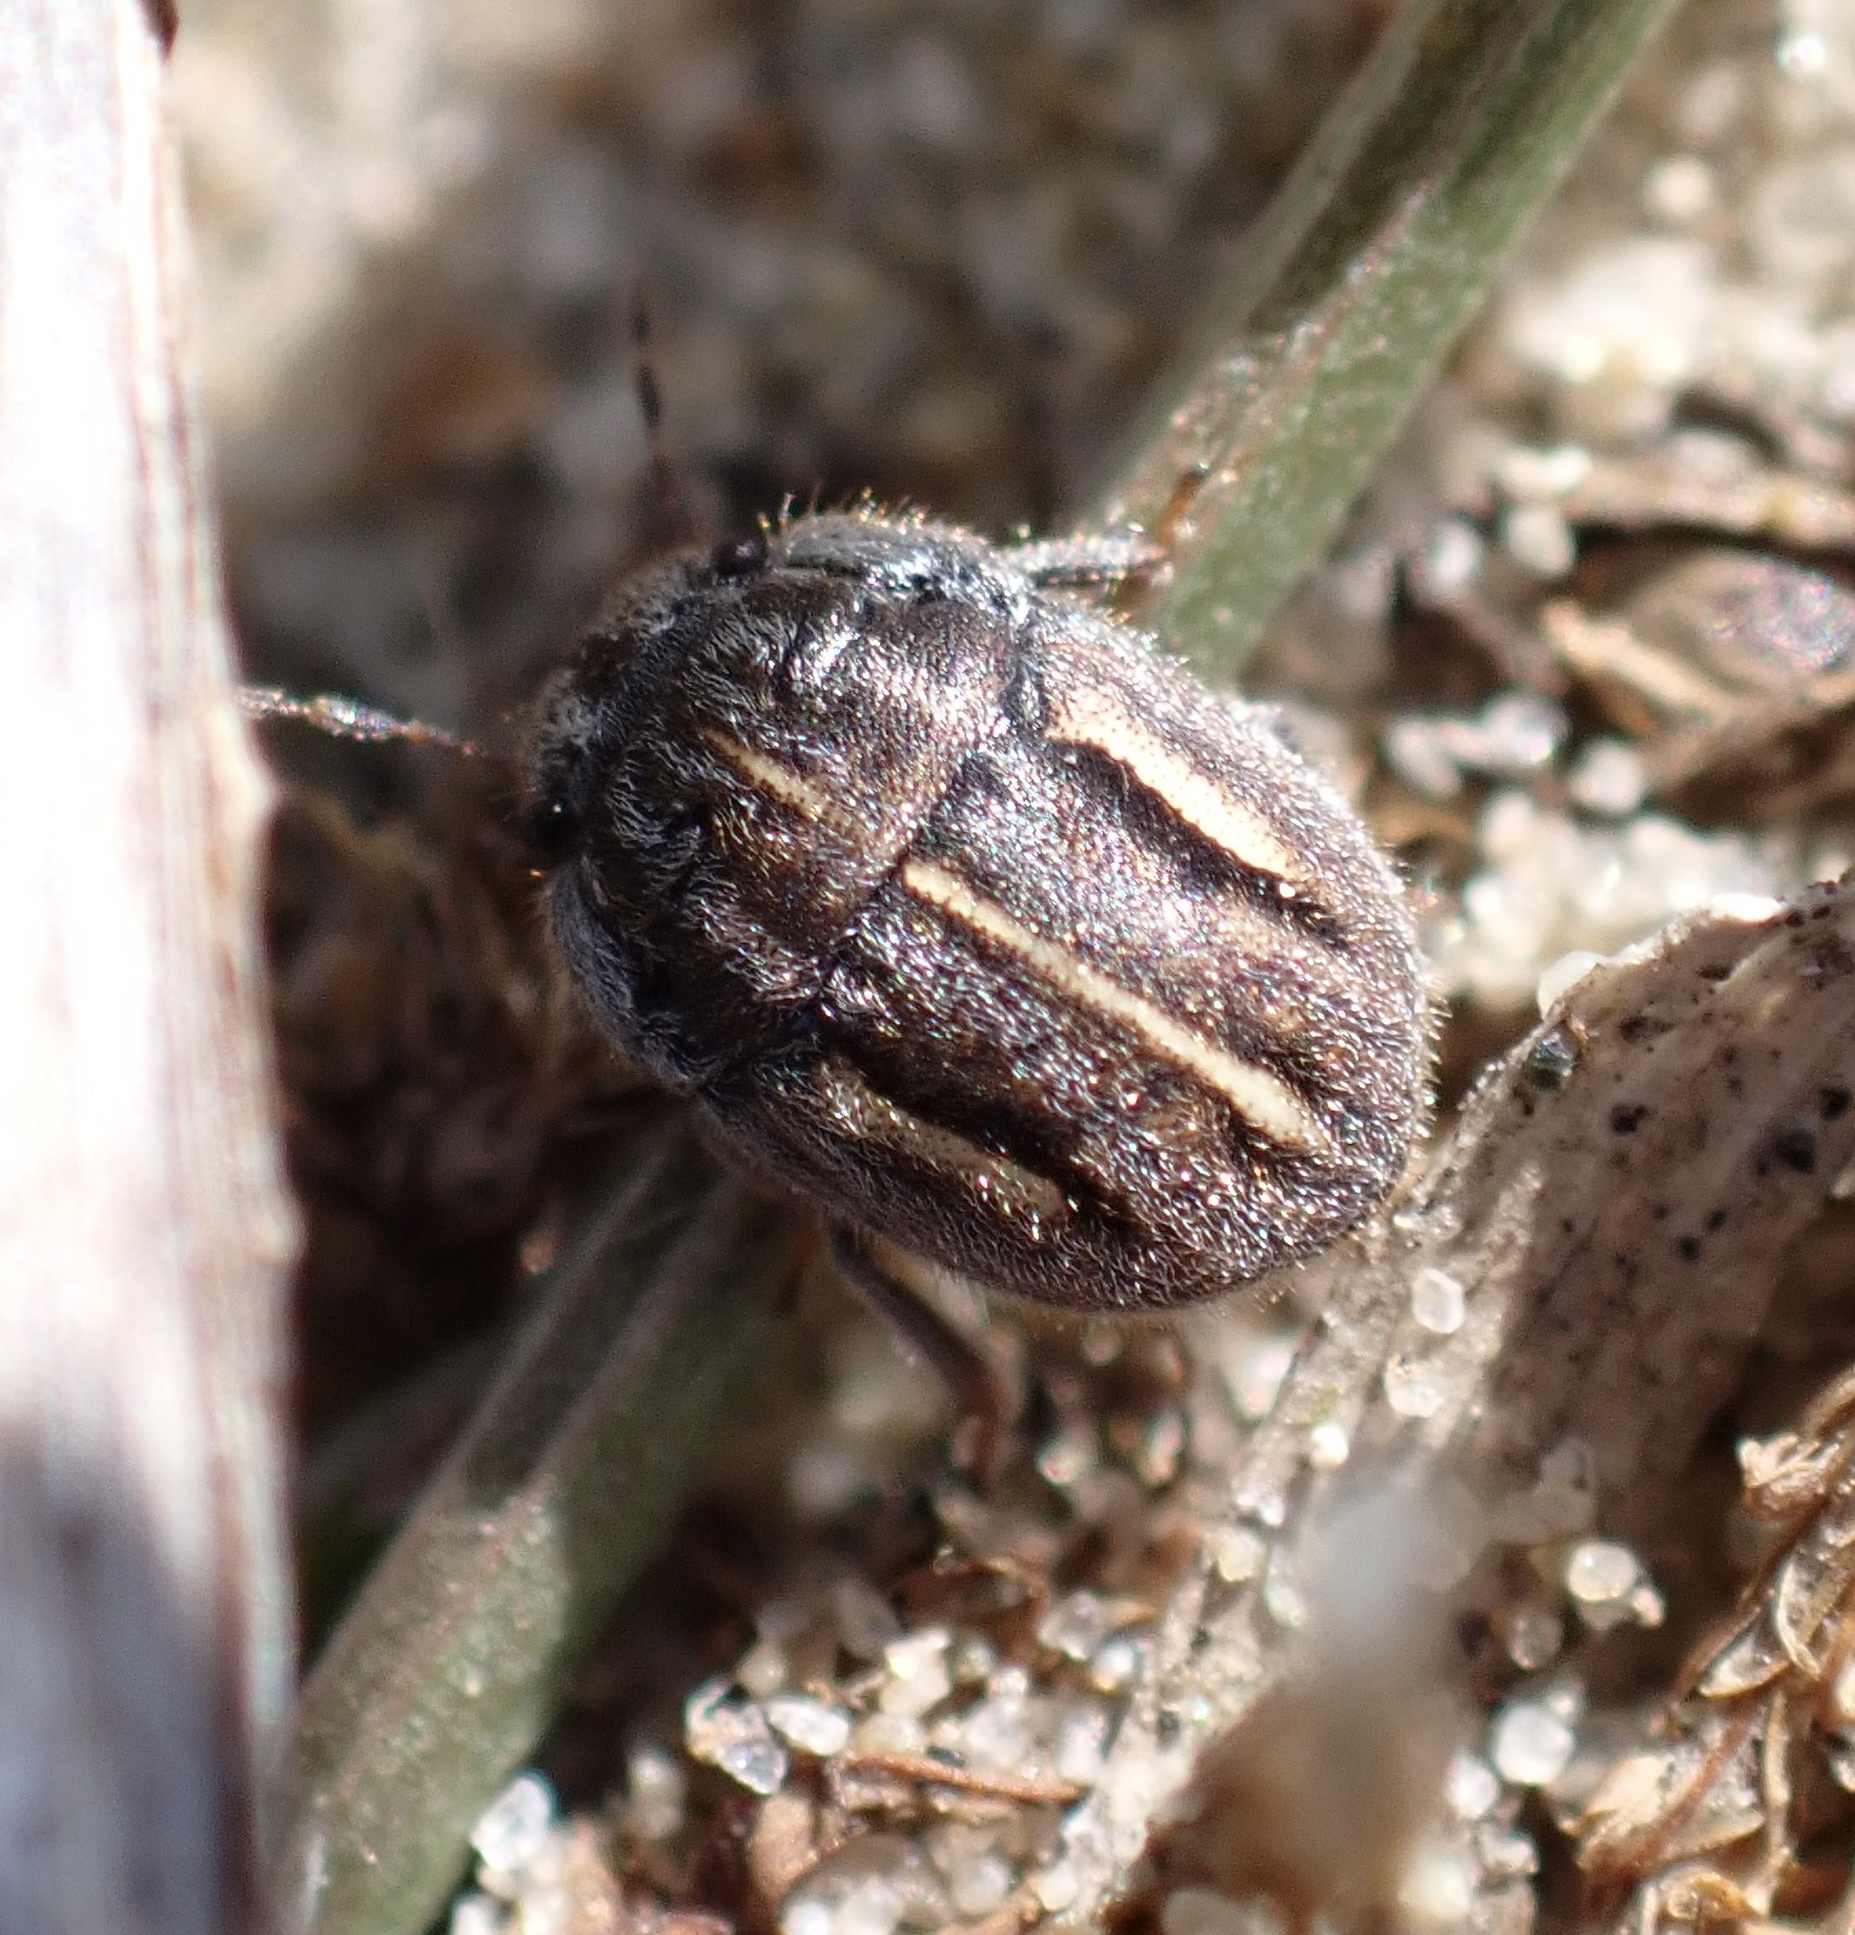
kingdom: Animalia
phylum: Arthropoda
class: Insecta
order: Hemiptera
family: Scutelleridae
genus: Odontoscelis
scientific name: Odontoscelis lineola
